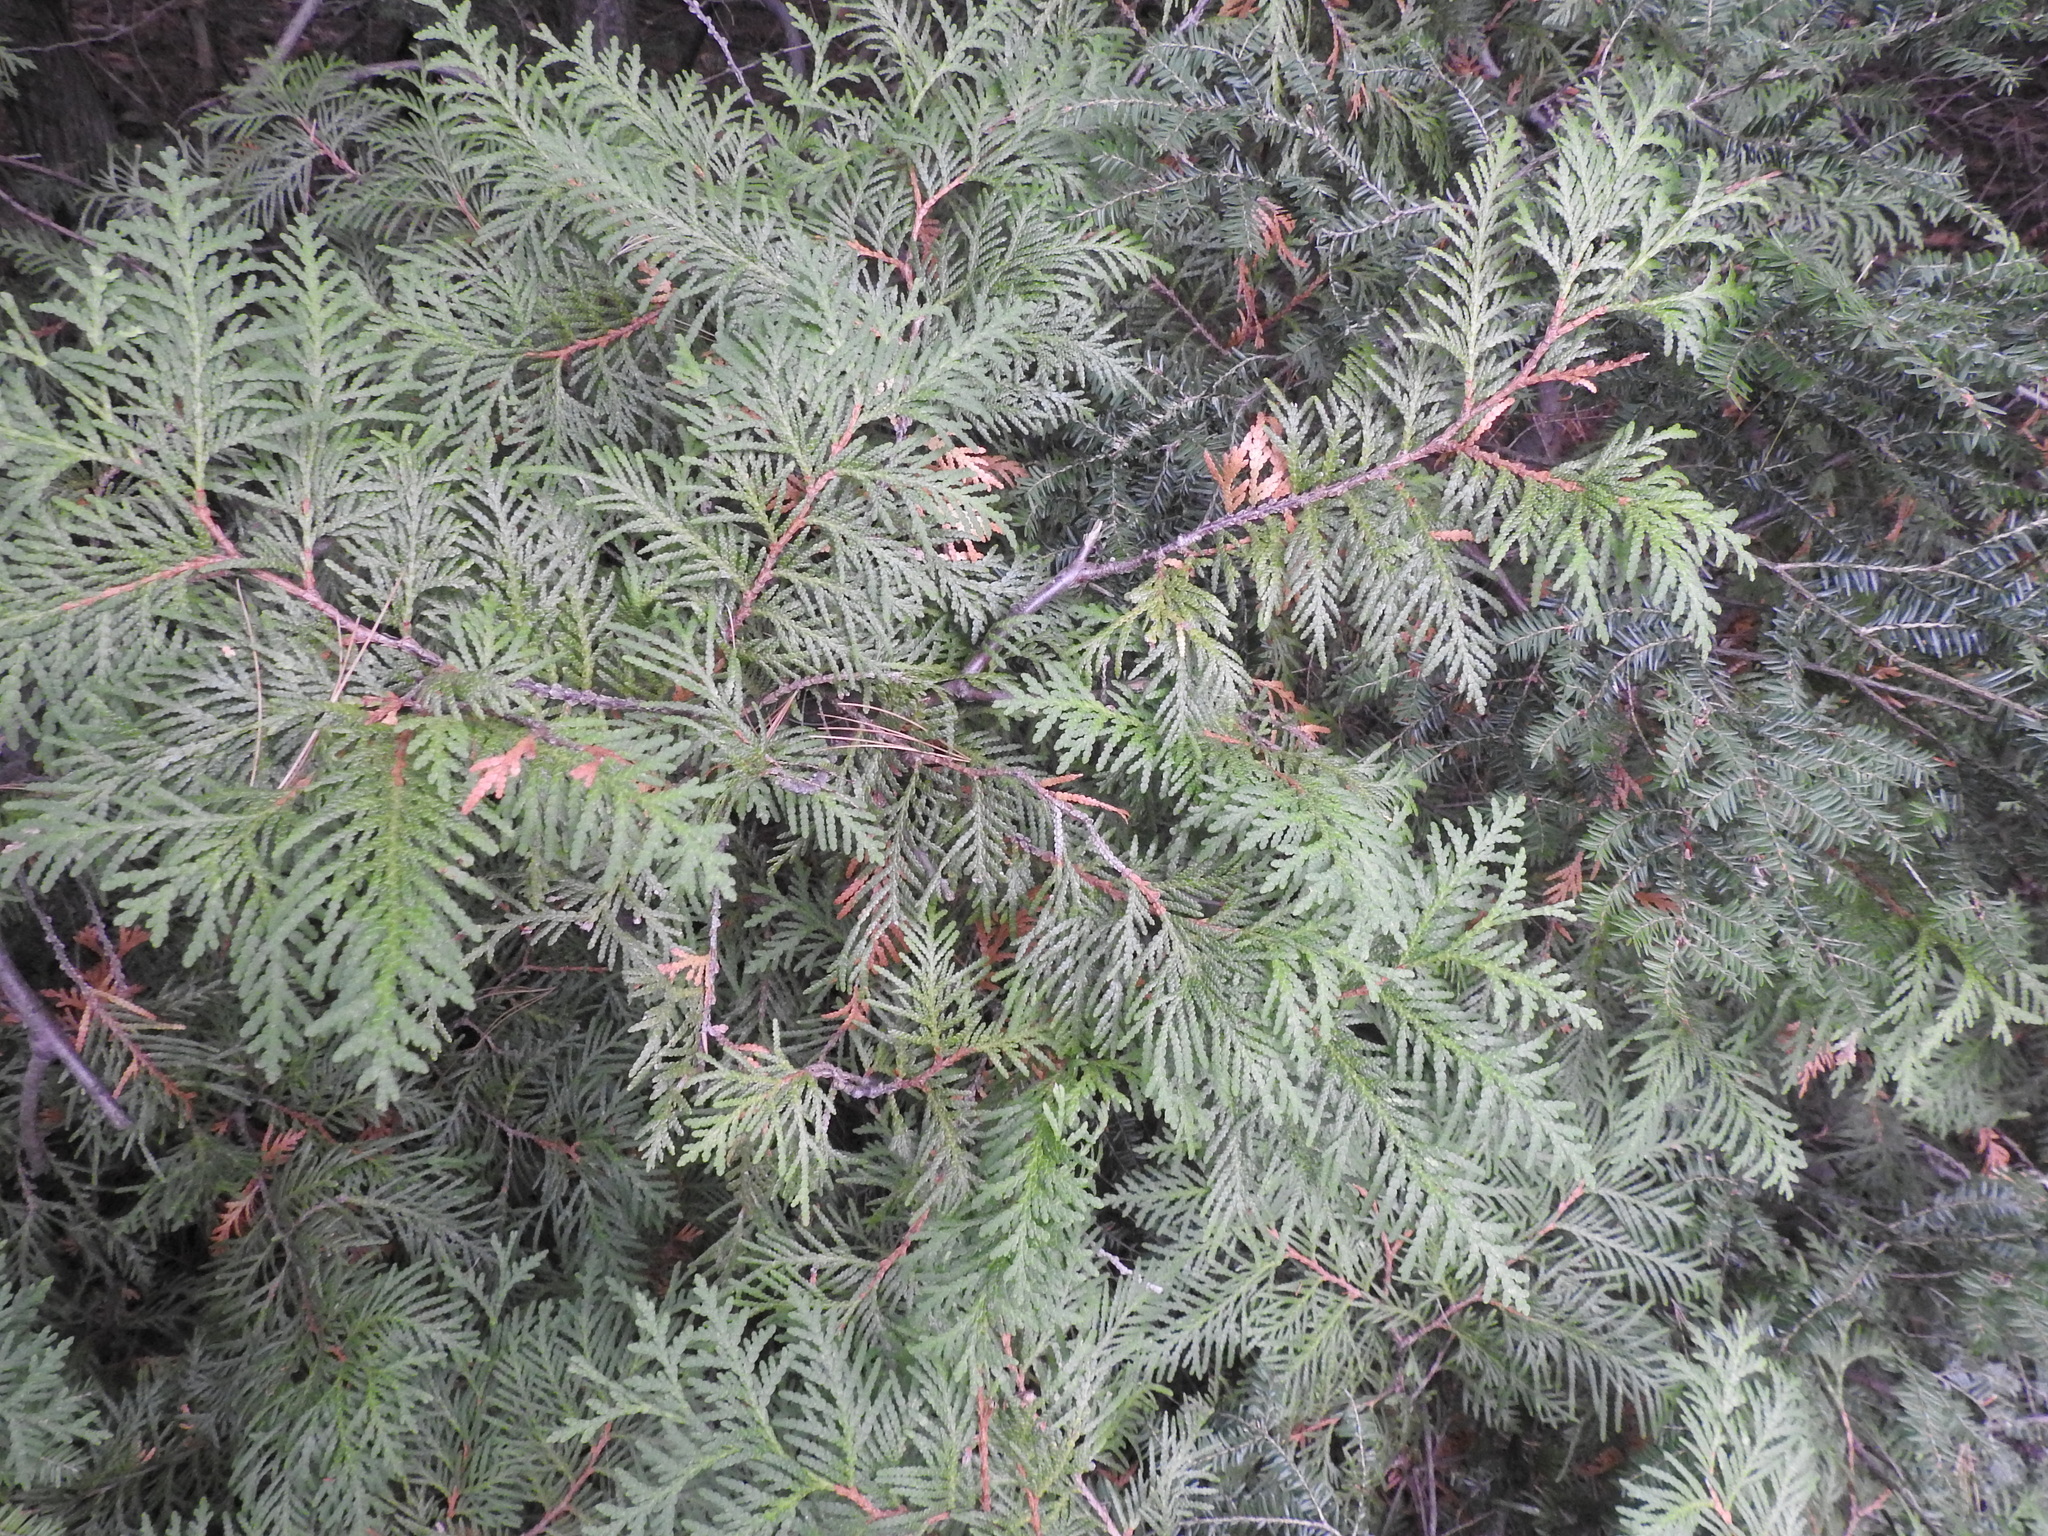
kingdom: Plantae
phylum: Tracheophyta
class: Pinopsida
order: Pinales
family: Cupressaceae
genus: Thuja
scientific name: Thuja occidentalis
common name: Northern white-cedar
